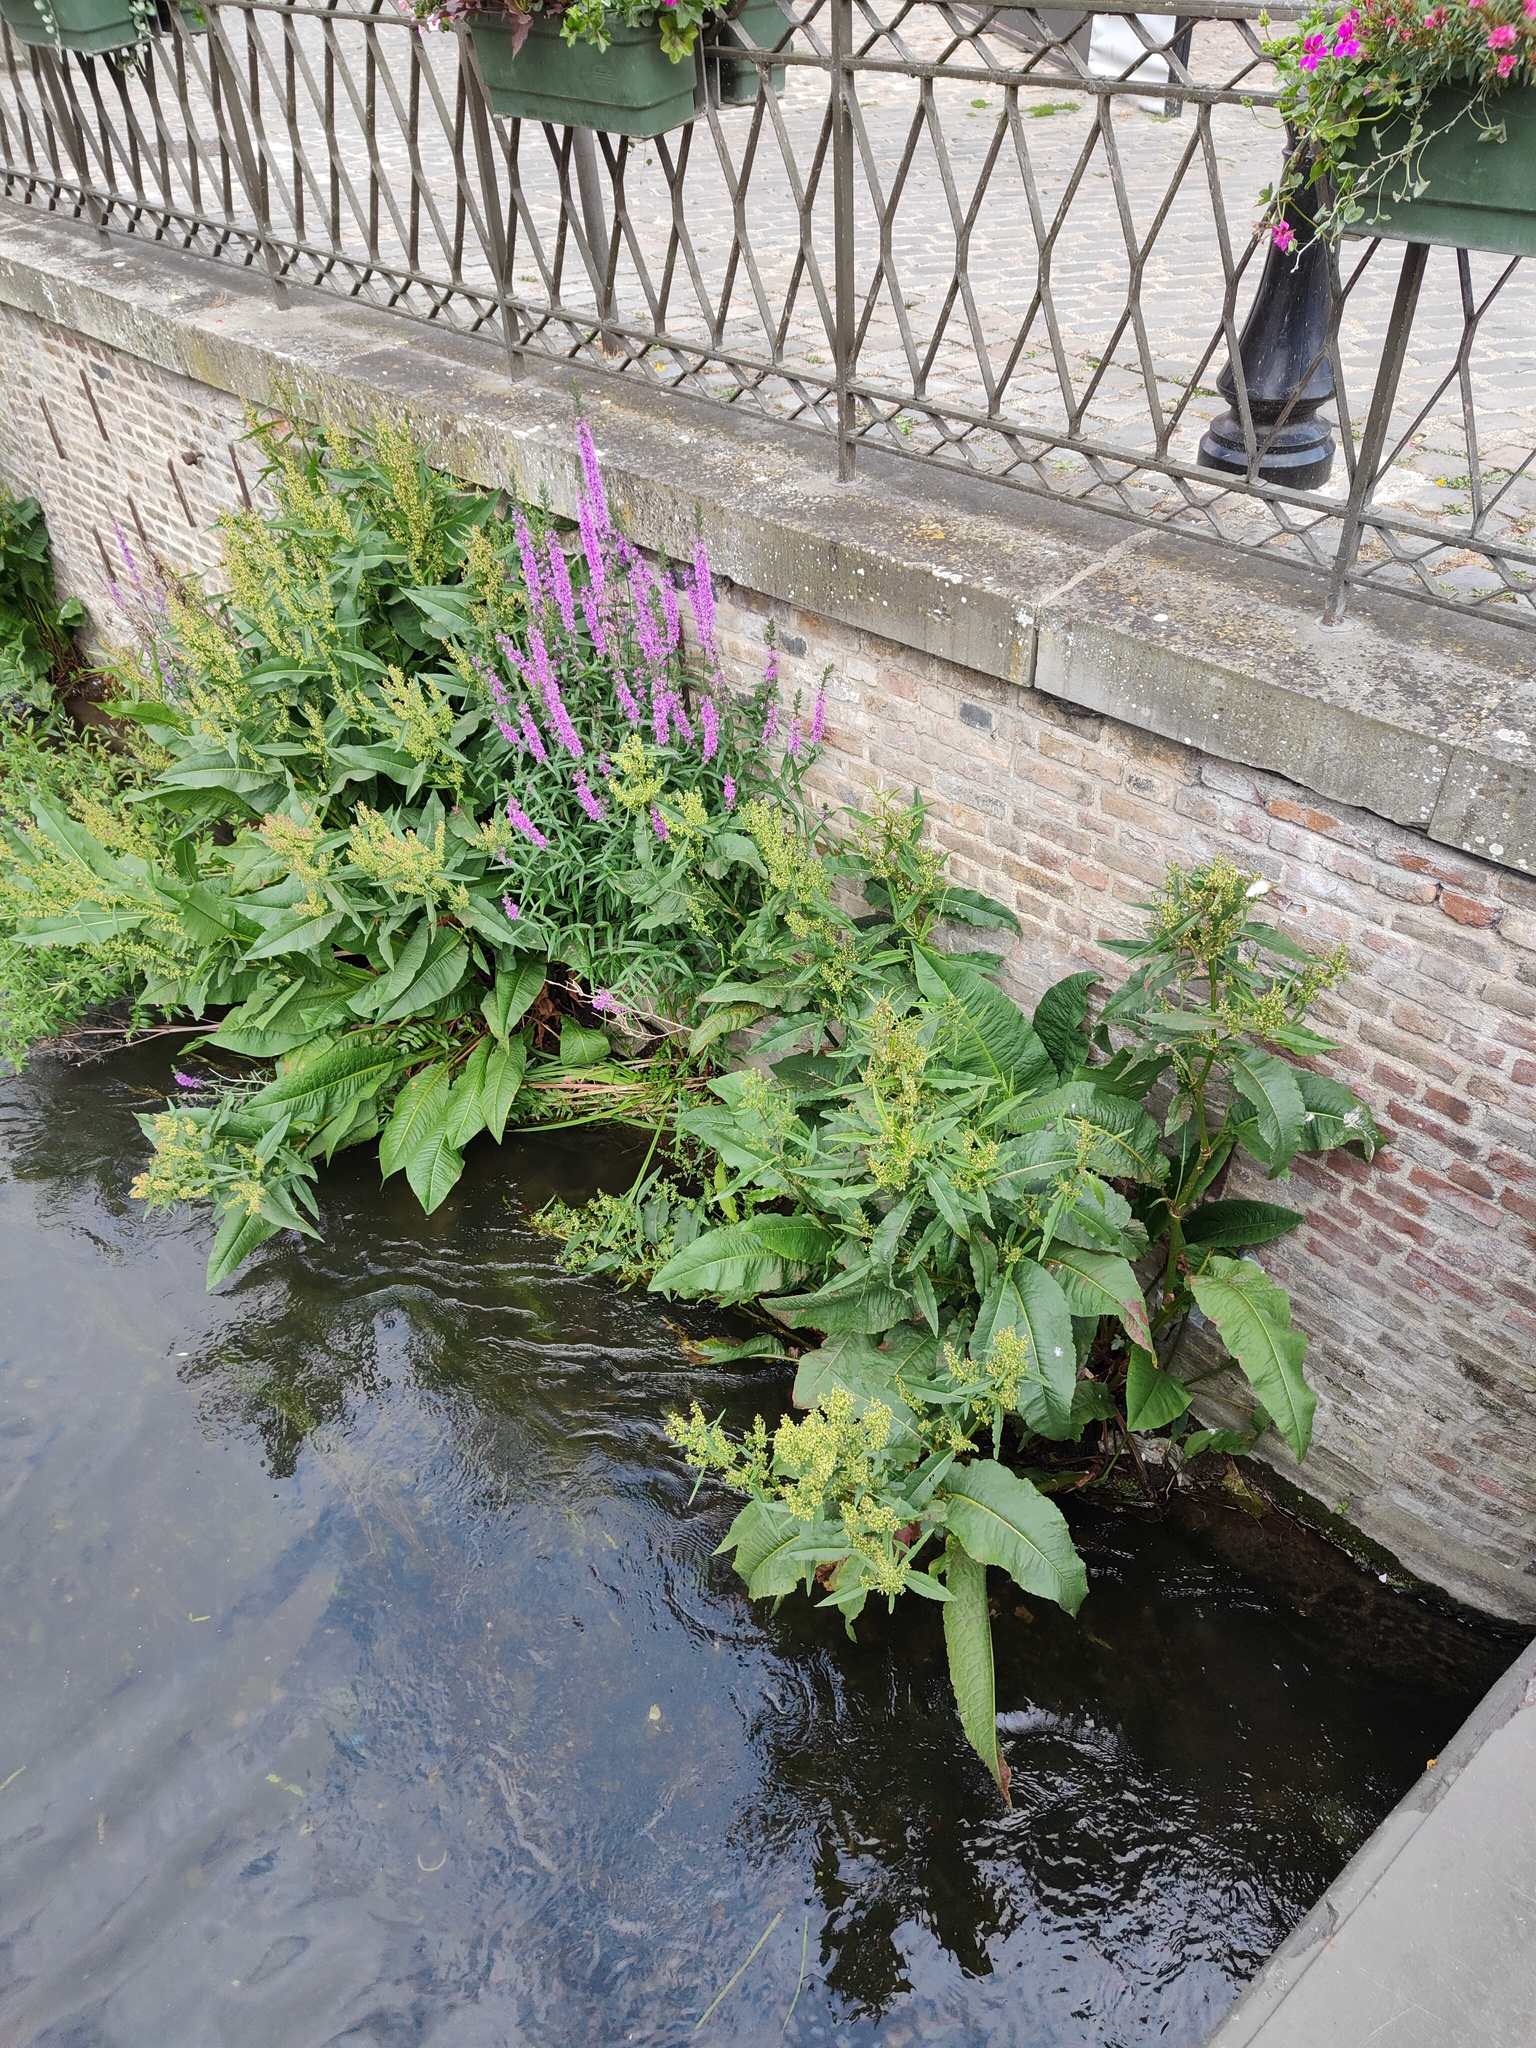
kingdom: Plantae
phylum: Tracheophyta
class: Magnoliopsida
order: Myrtales
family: Lythraceae
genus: Lythrum
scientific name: Lythrum salicaria
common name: Purple loosestrife
